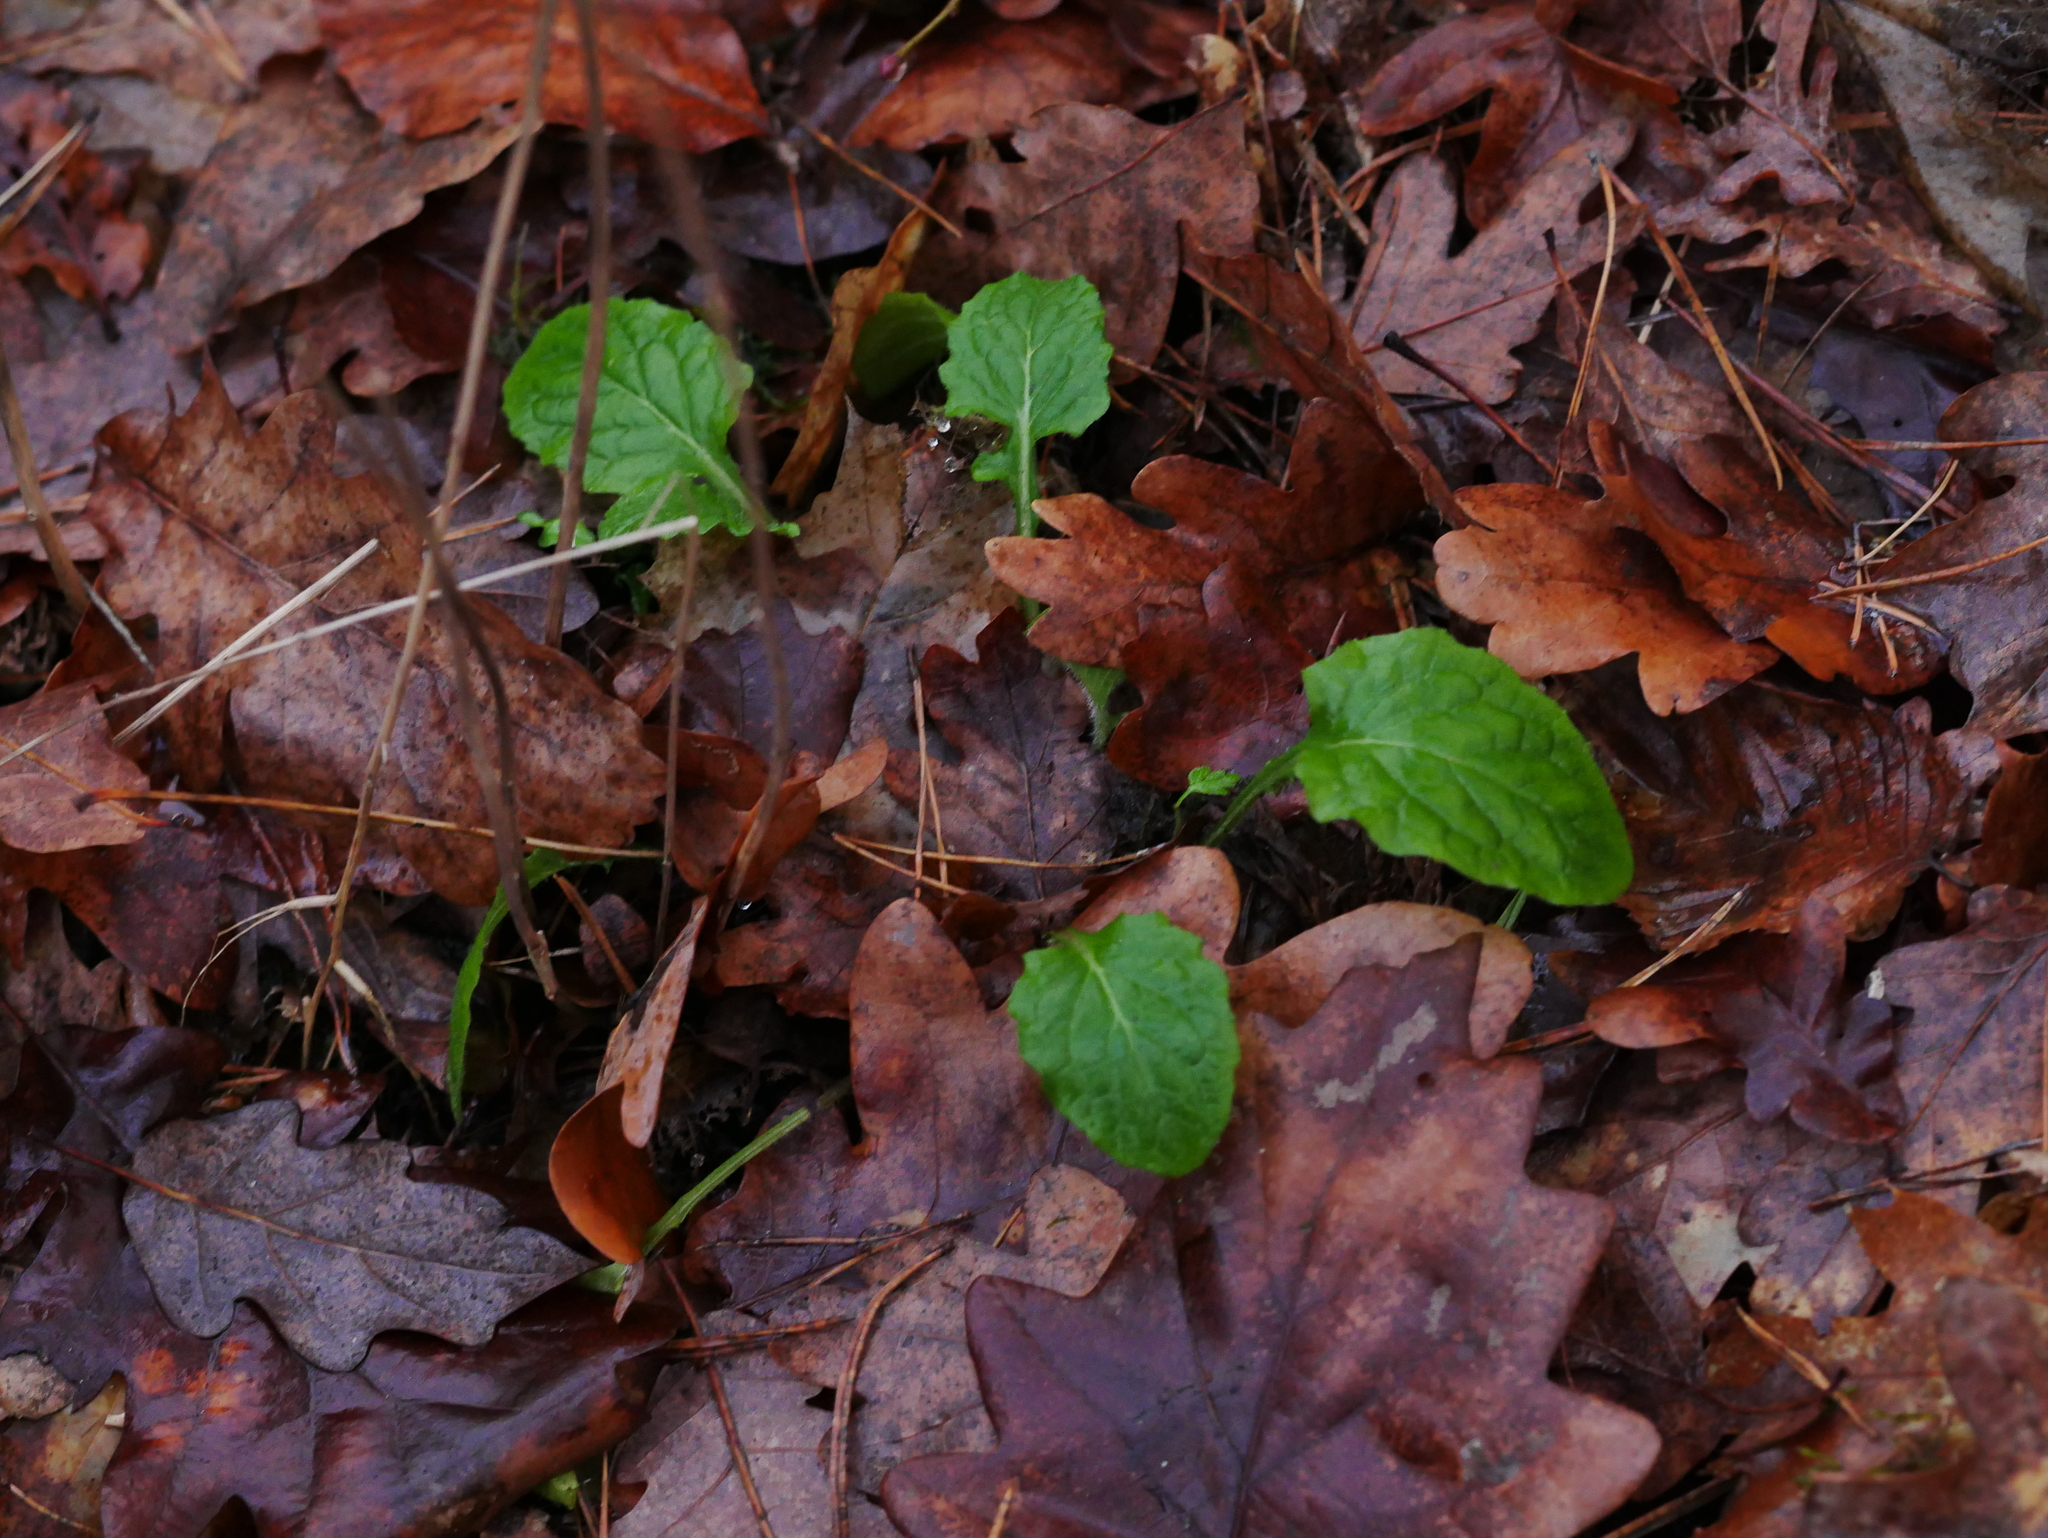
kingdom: Plantae
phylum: Tracheophyta
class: Magnoliopsida
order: Asterales
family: Asteraceae
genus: Lapsana
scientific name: Lapsana communis
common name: Nipplewort
